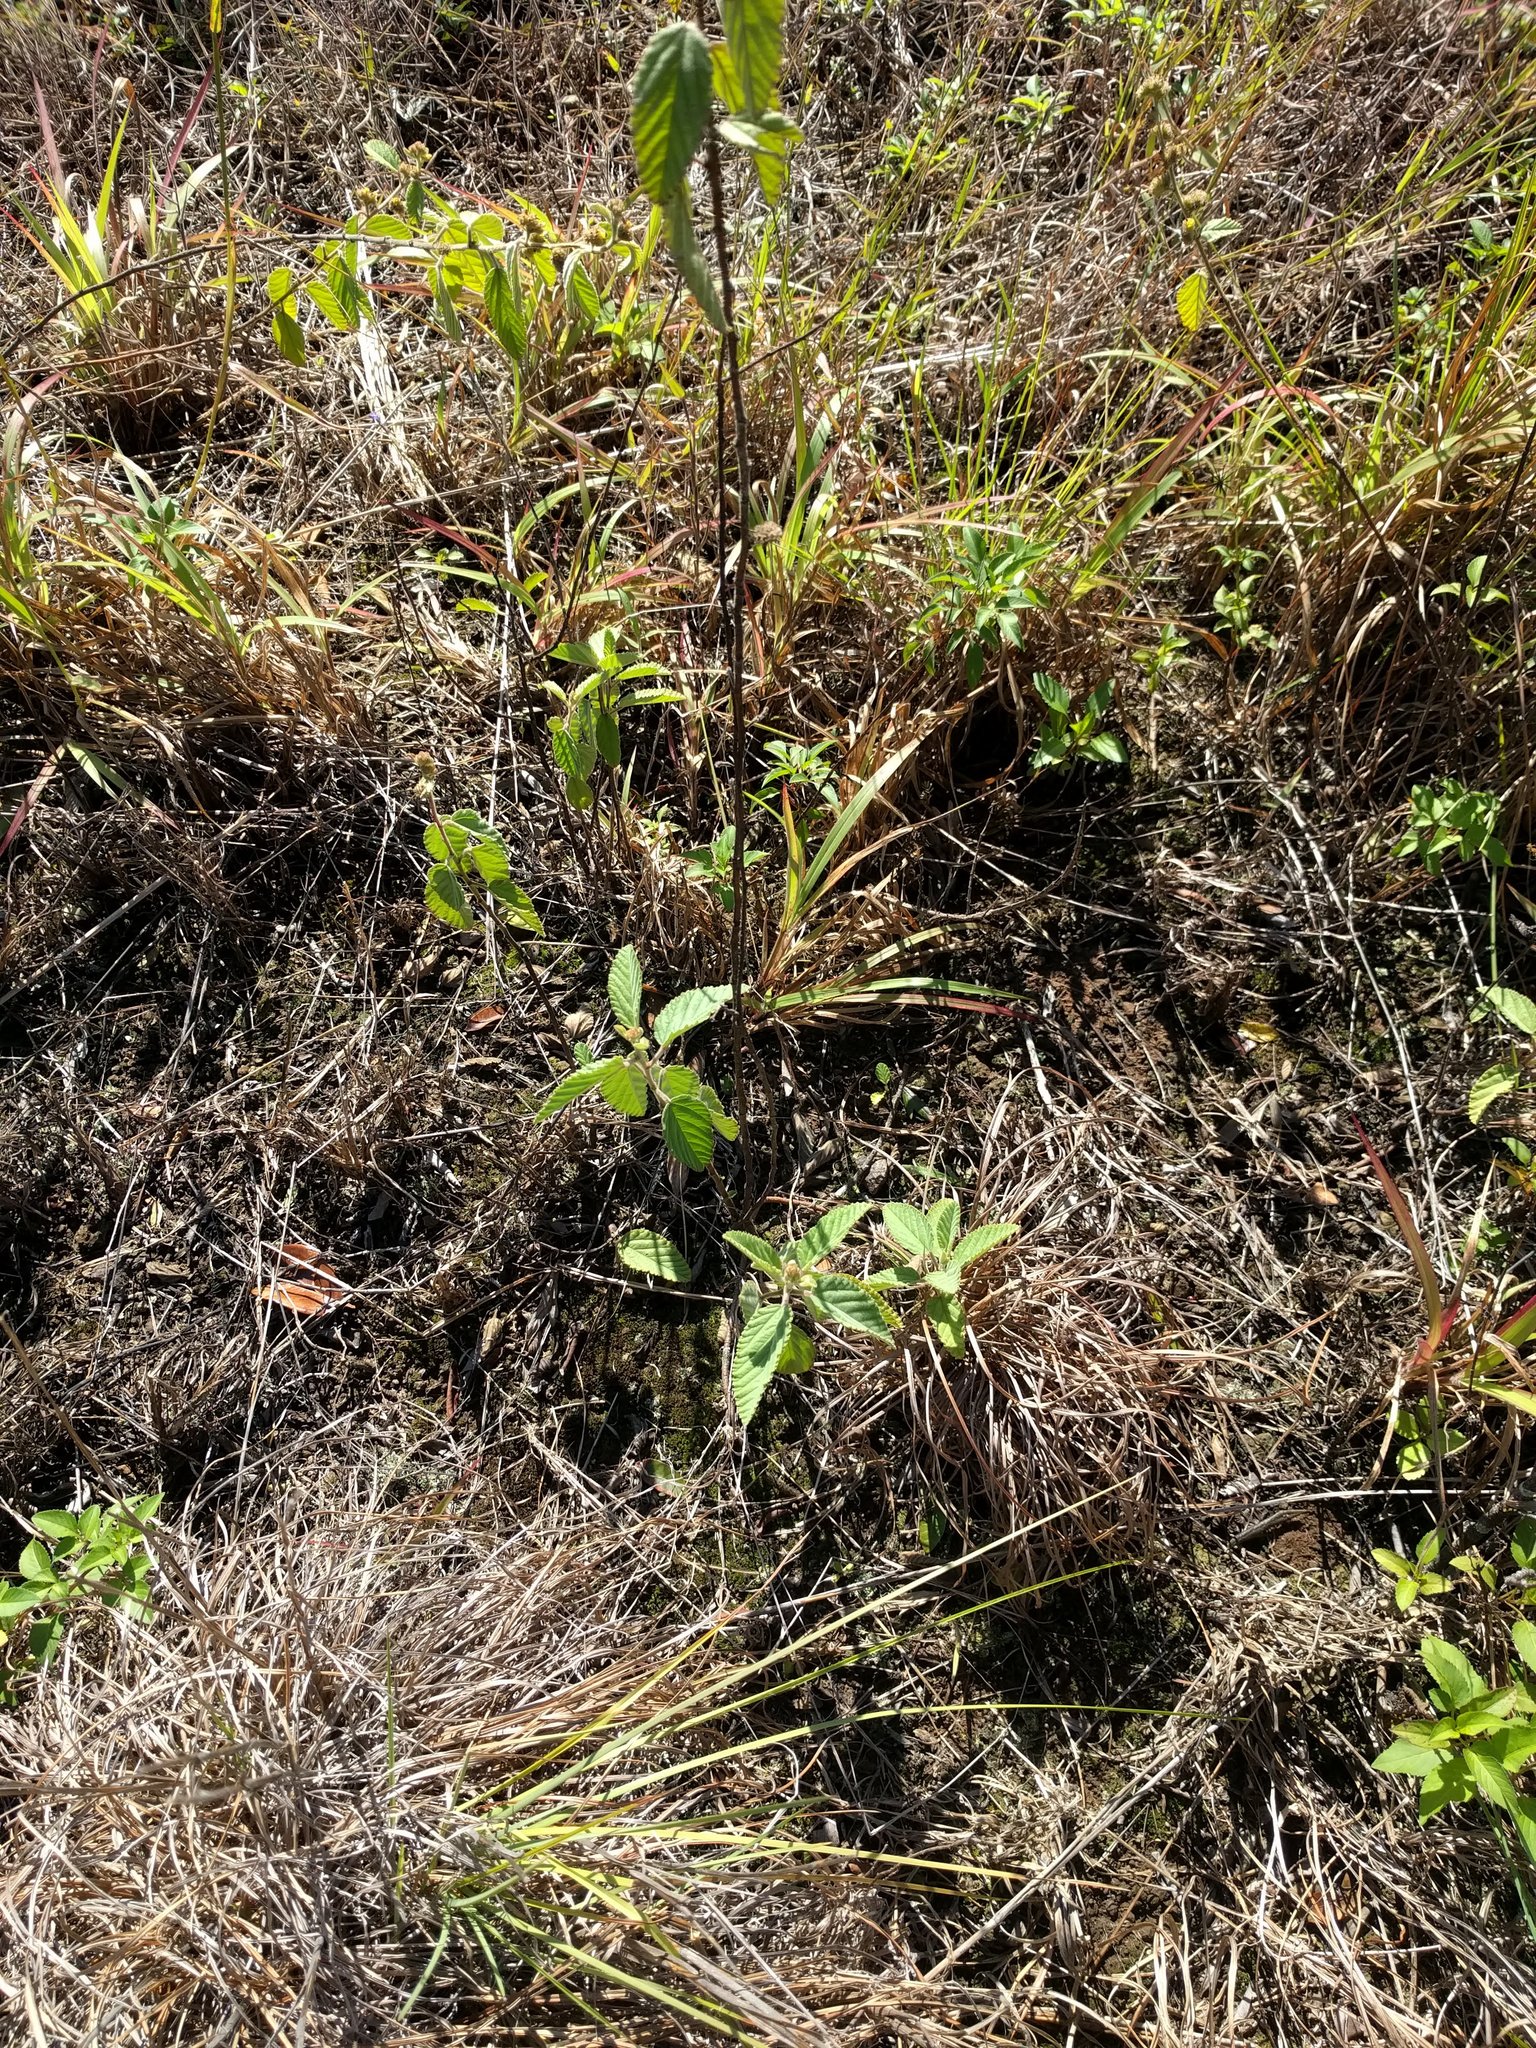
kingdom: Plantae
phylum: Tracheophyta
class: Magnoliopsida
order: Malvales
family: Malvaceae
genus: Waltheria
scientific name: Waltheria indica
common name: Leather-coat
